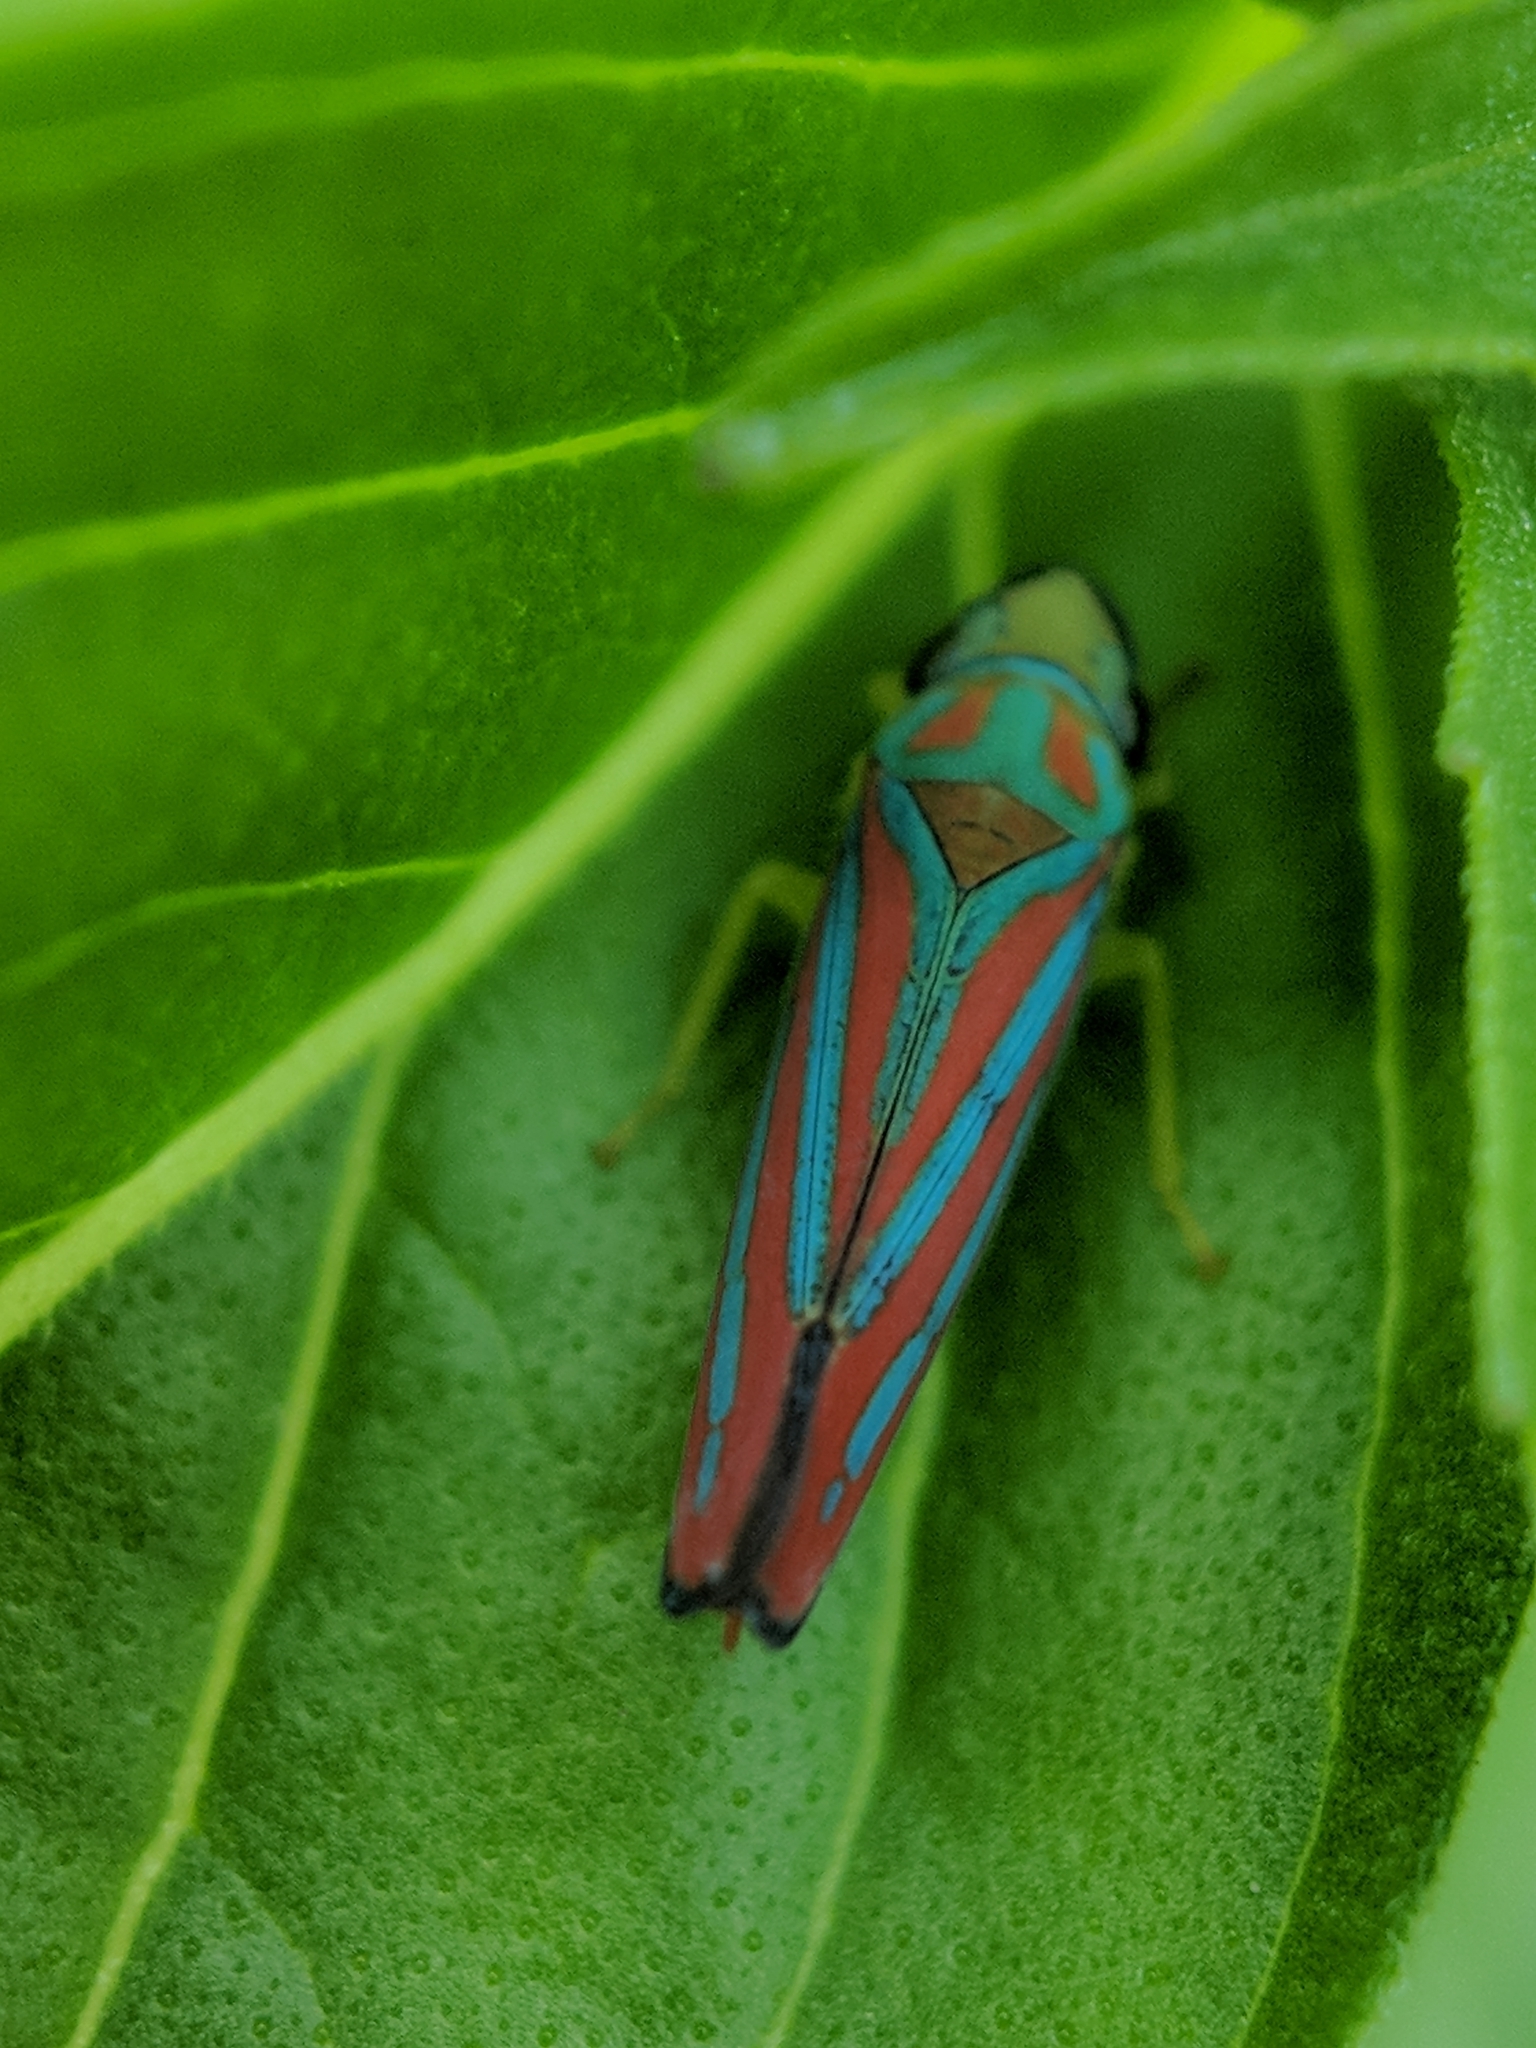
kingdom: Animalia
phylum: Arthropoda
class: Insecta
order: Hemiptera
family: Cicadellidae
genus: Graphocephala
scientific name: Graphocephala coccinea
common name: Candy-striped leafhopper
